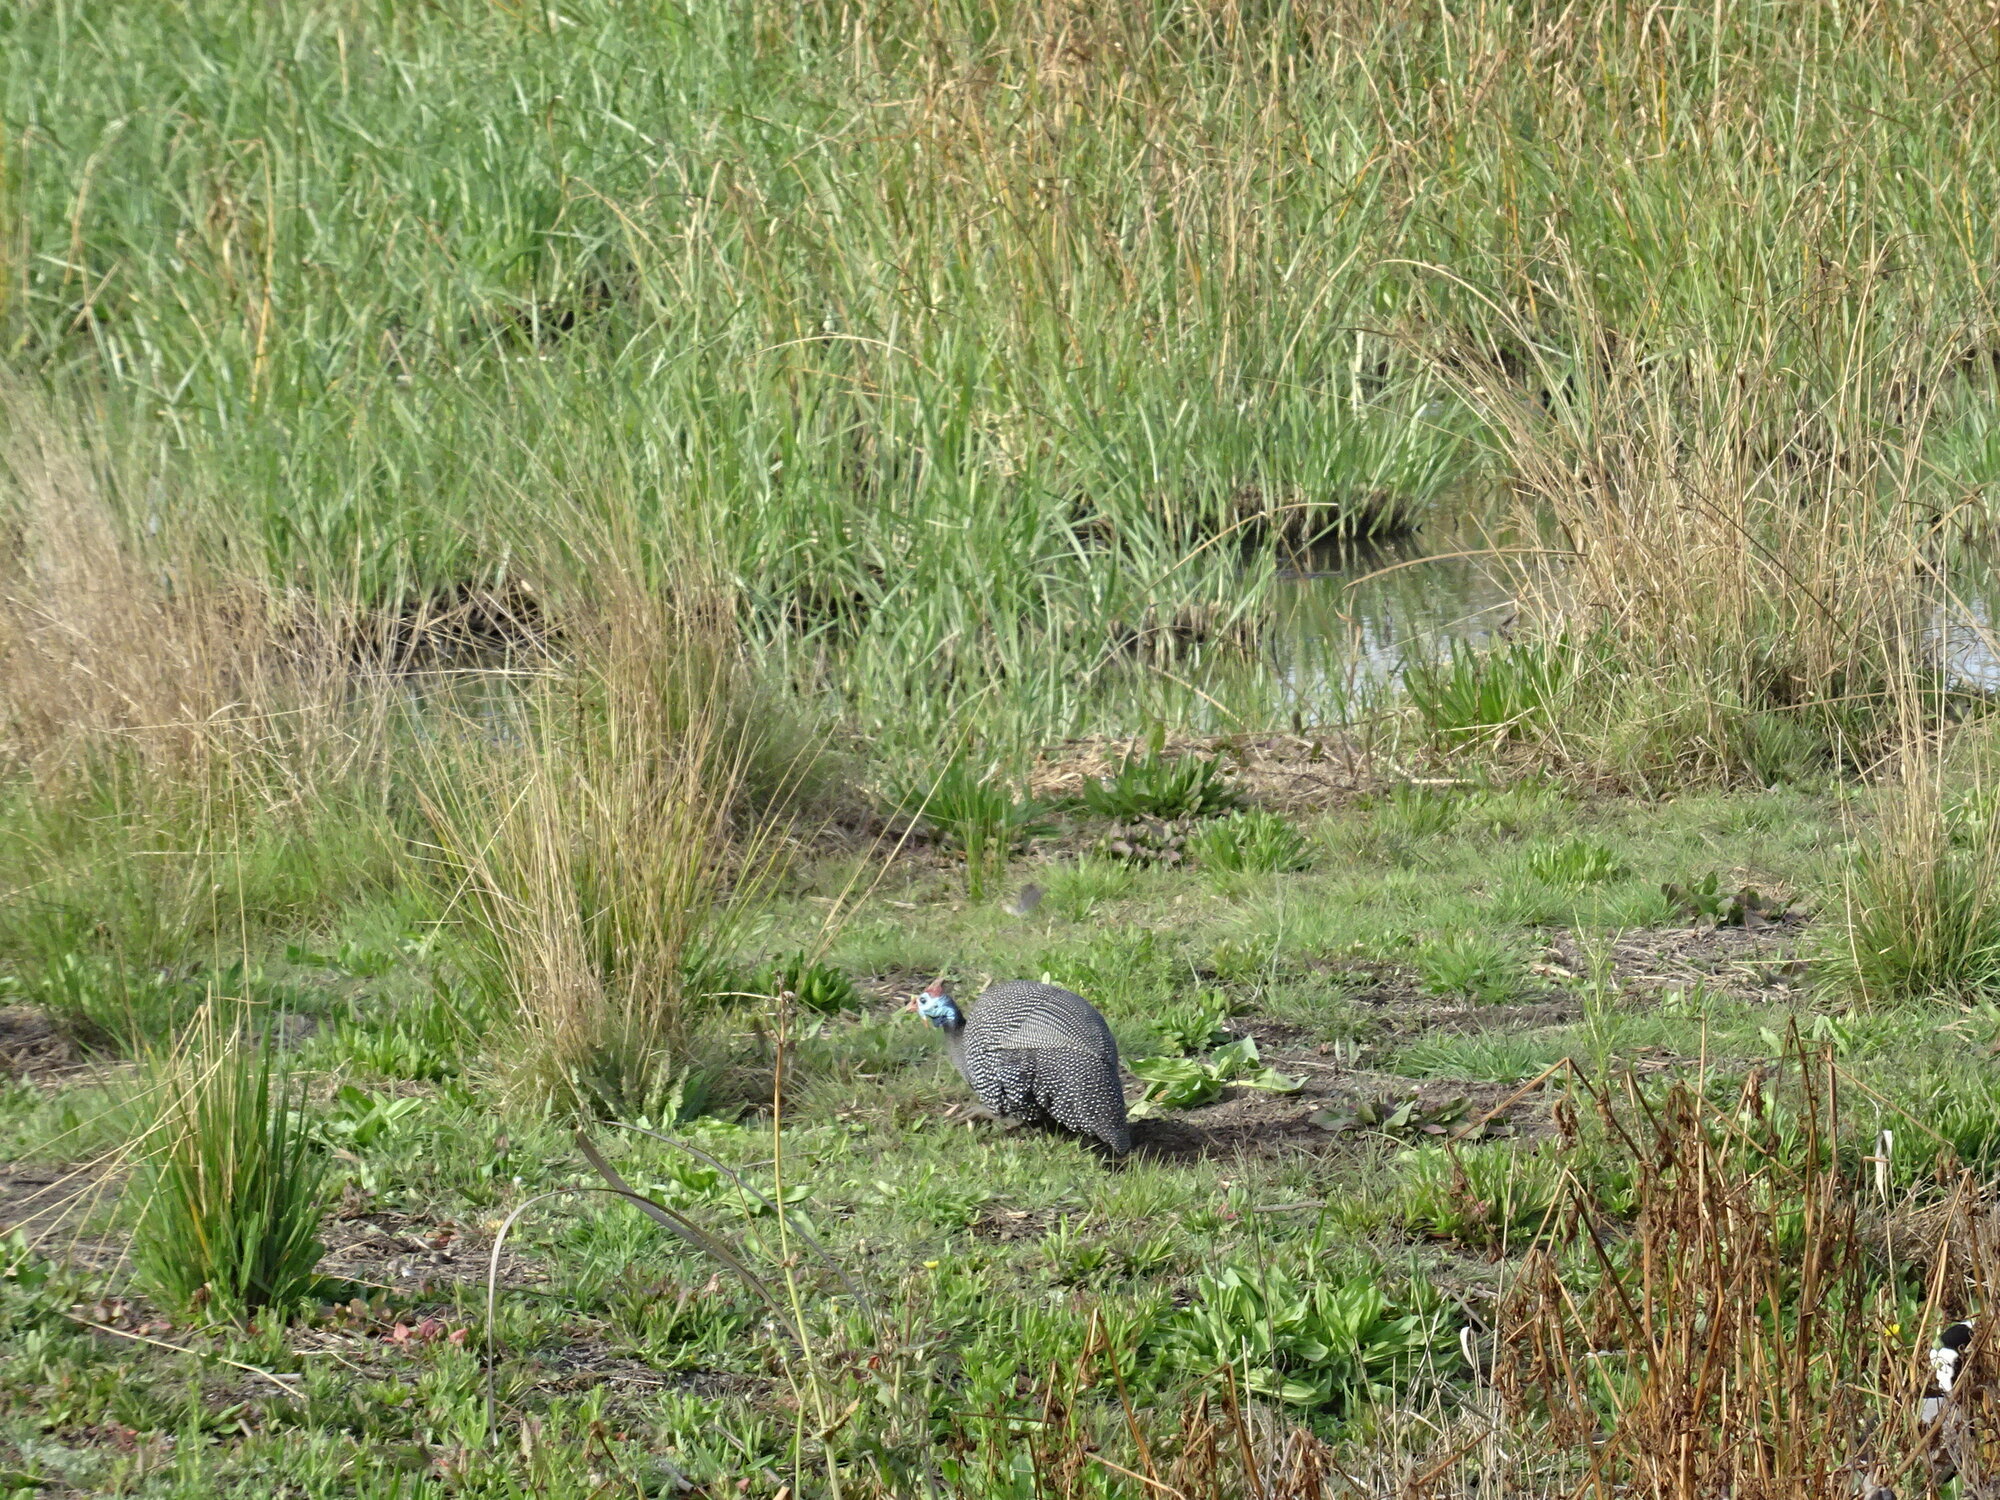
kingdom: Animalia
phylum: Chordata
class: Aves
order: Galliformes
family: Numididae
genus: Numida
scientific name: Numida meleagris
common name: Helmeted guineafowl
